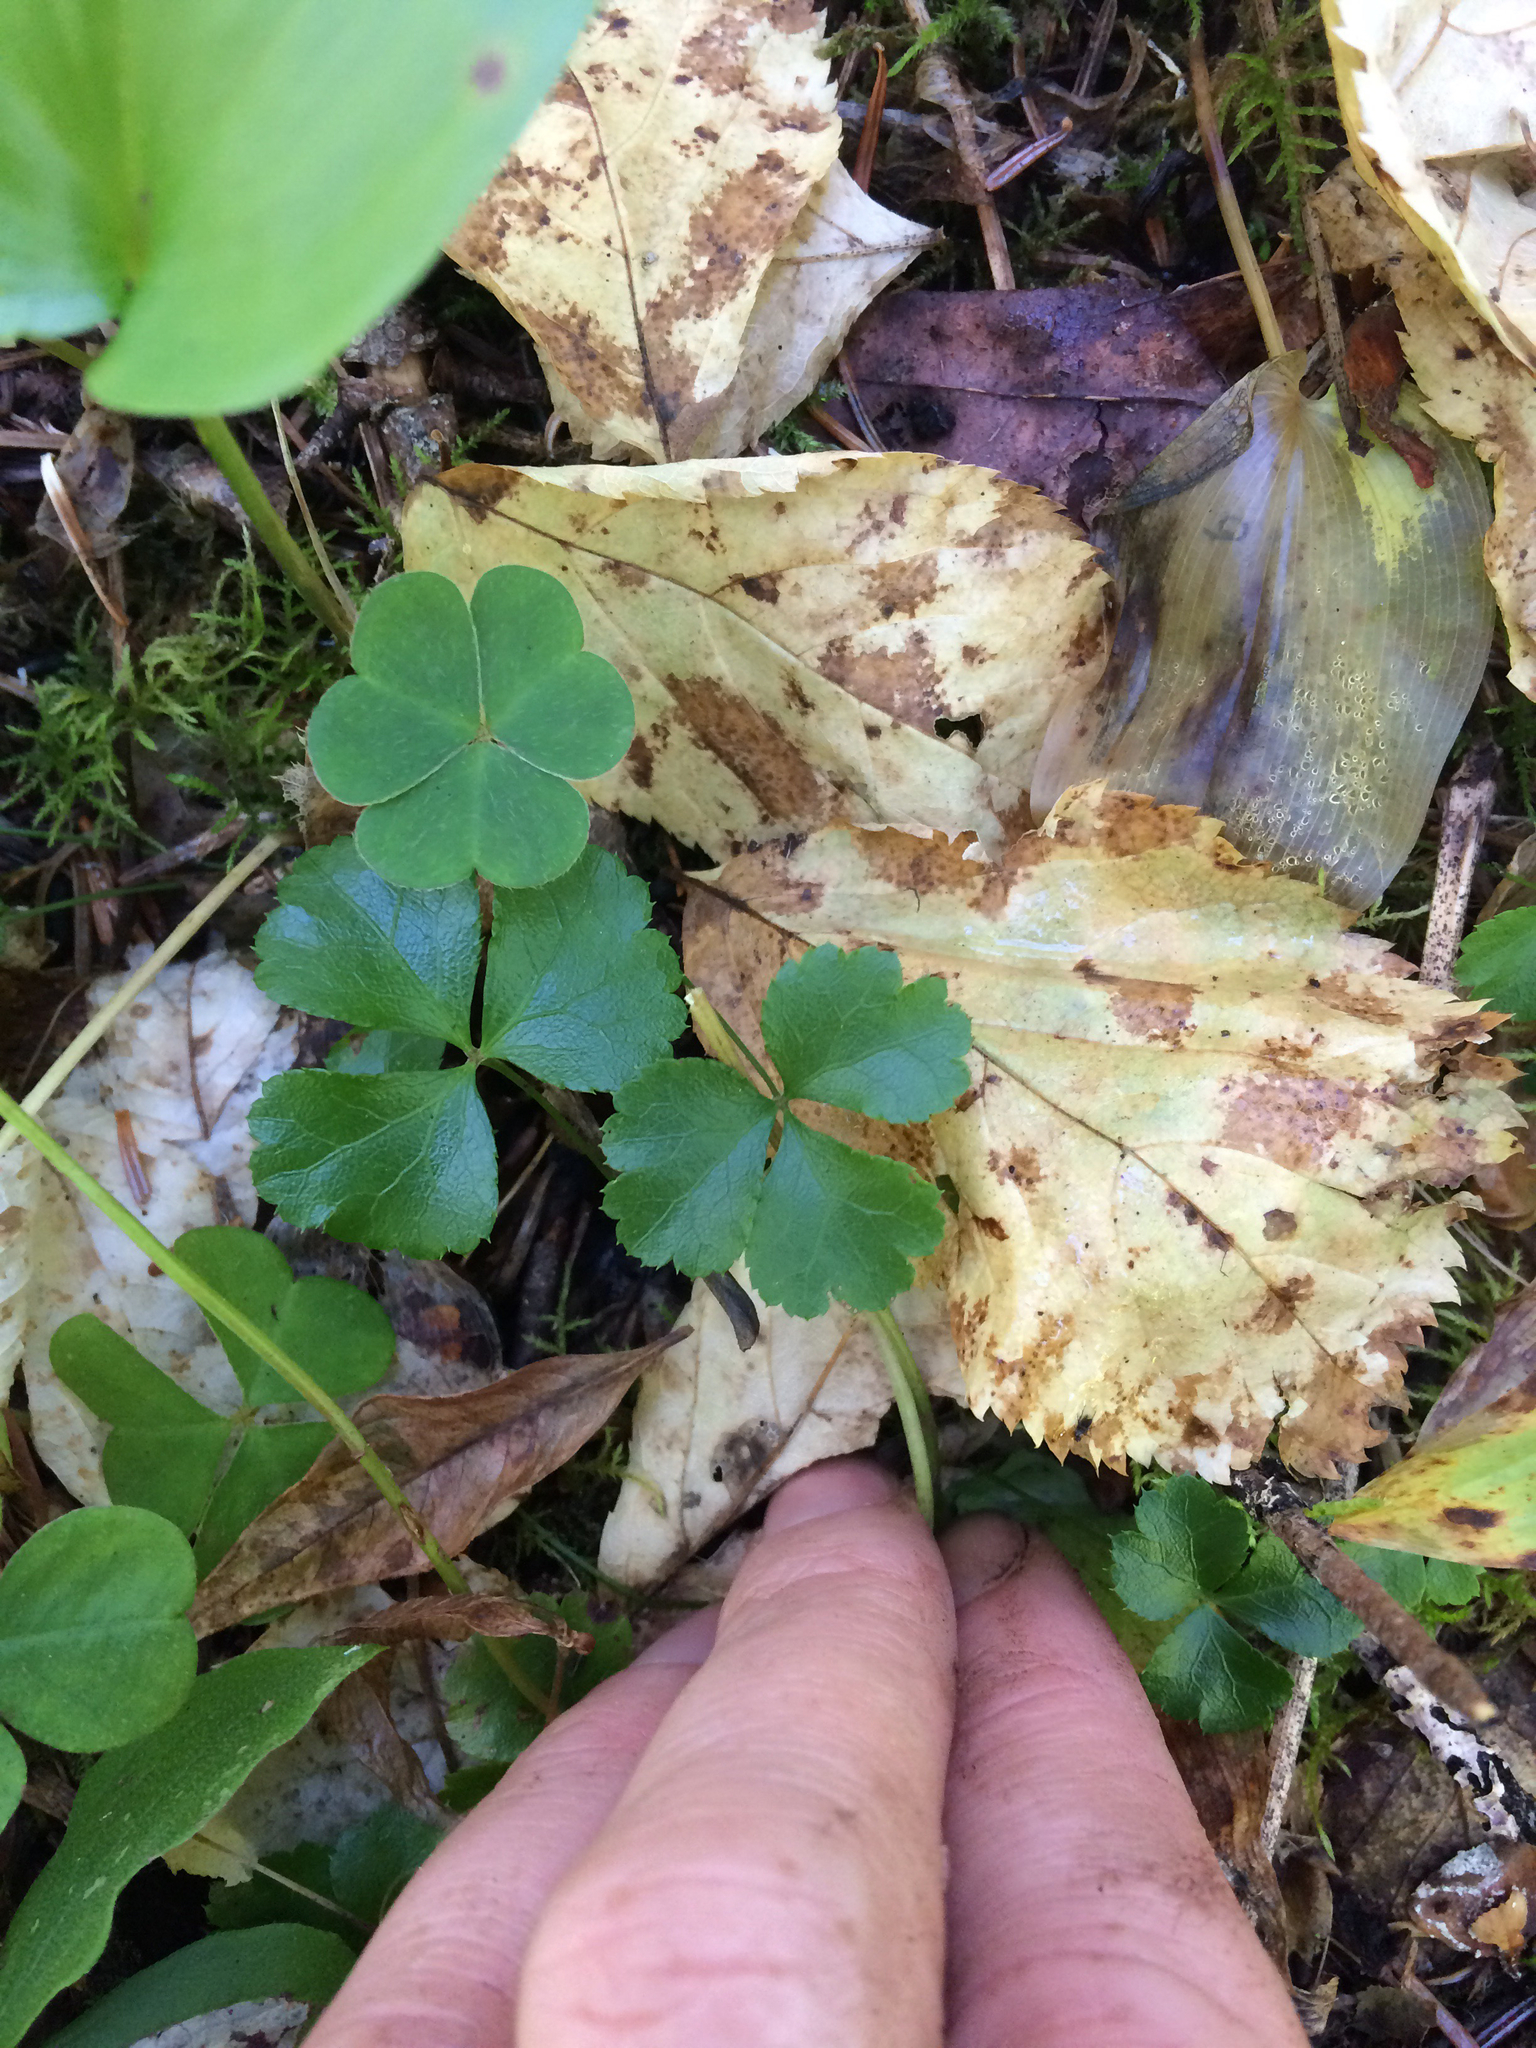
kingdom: Plantae
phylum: Tracheophyta
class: Magnoliopsida
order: Ranunculales
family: Ranunculaceae
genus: Coptis
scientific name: Coptis trifolia
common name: Canker-root
